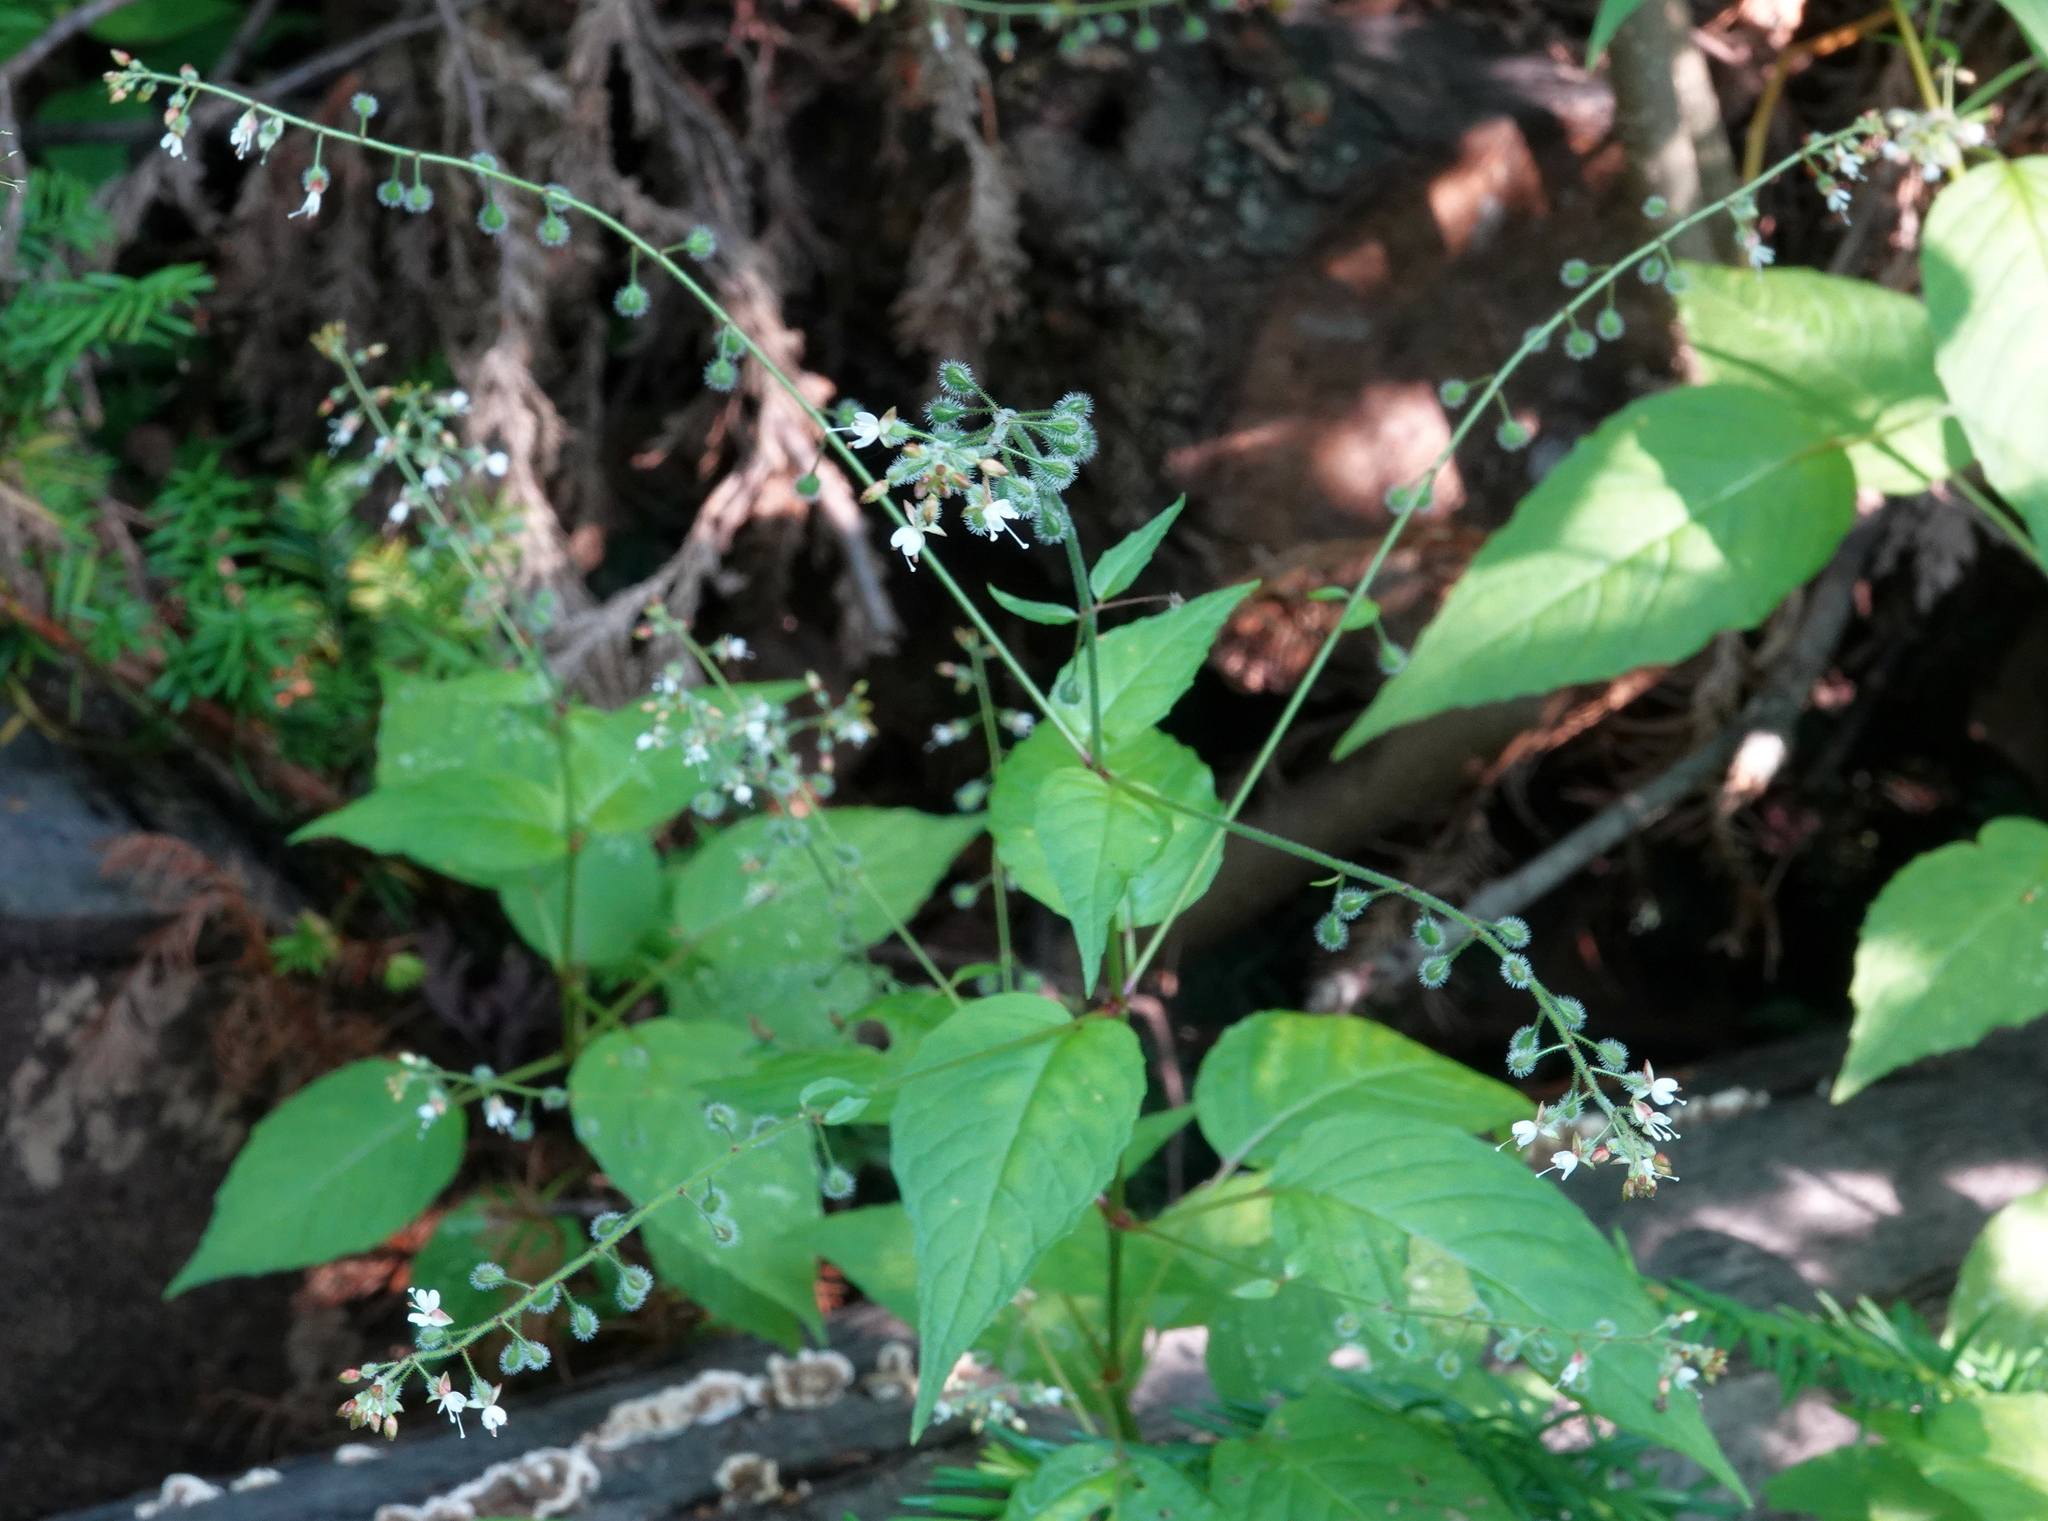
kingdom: Plantae
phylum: Tracheophyta
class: Magnoliopsida
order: Myrtales
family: Onagraceae
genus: Circaea
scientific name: Circaea canadensis
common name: Broad-leaved enchanter's nightshade
